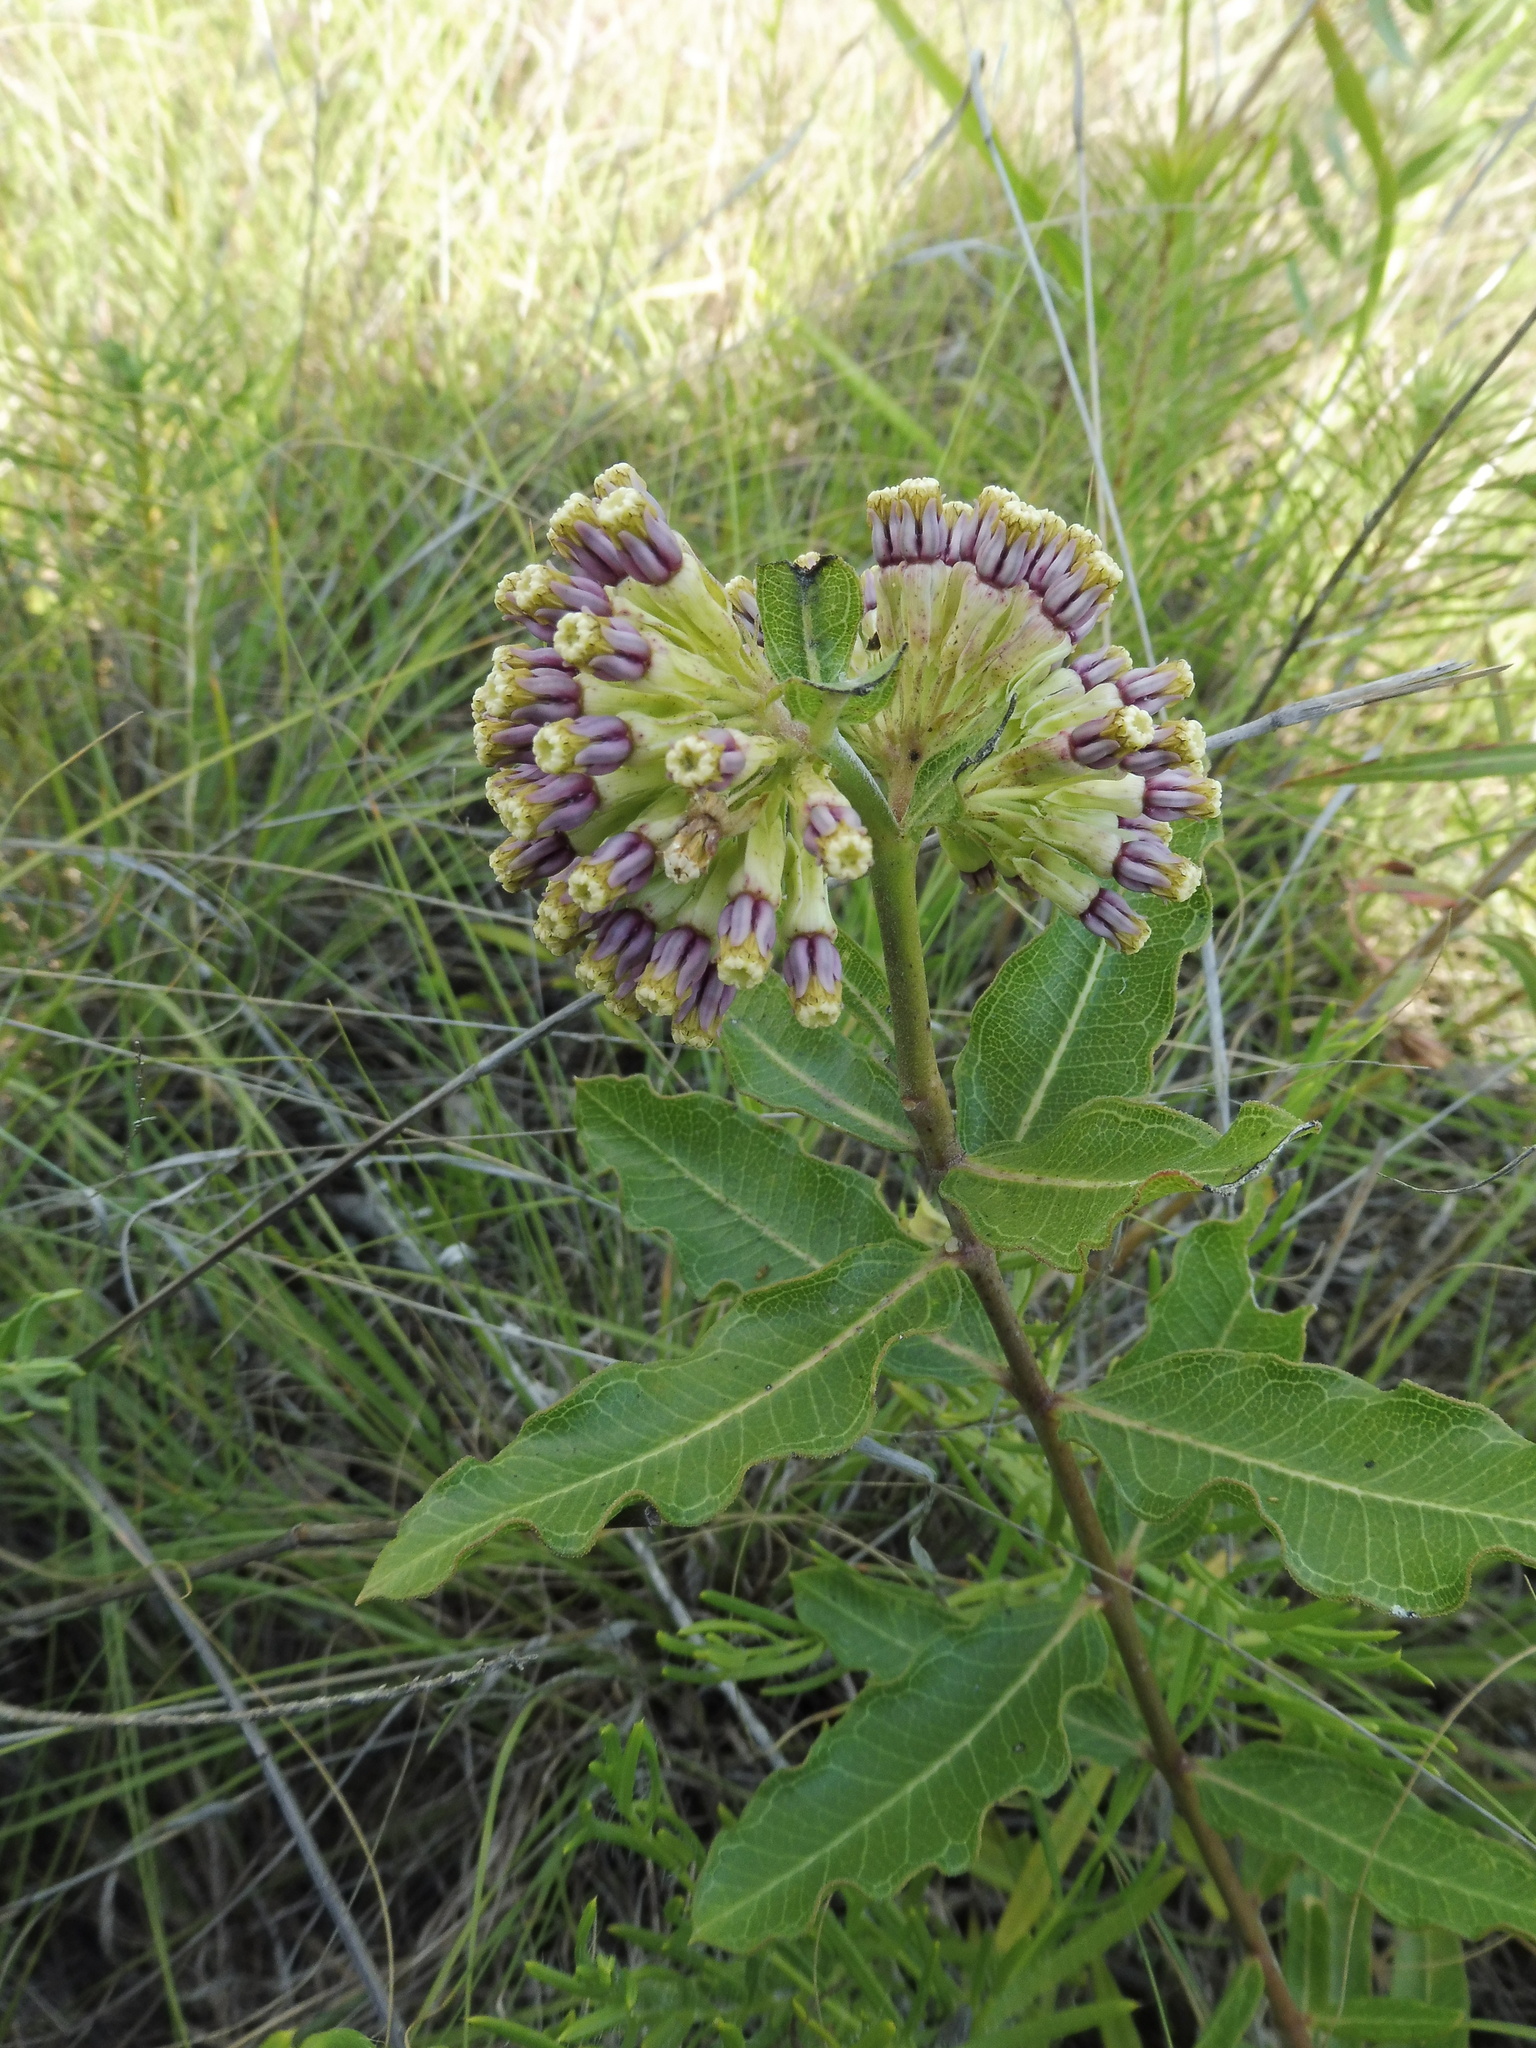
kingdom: Plantae
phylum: Tracheophyta
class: Magnoliopsida
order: Gentianales
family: Apocynaceae
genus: Asclepias
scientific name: Asclepias viridiflora
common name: Green comet milkweed
